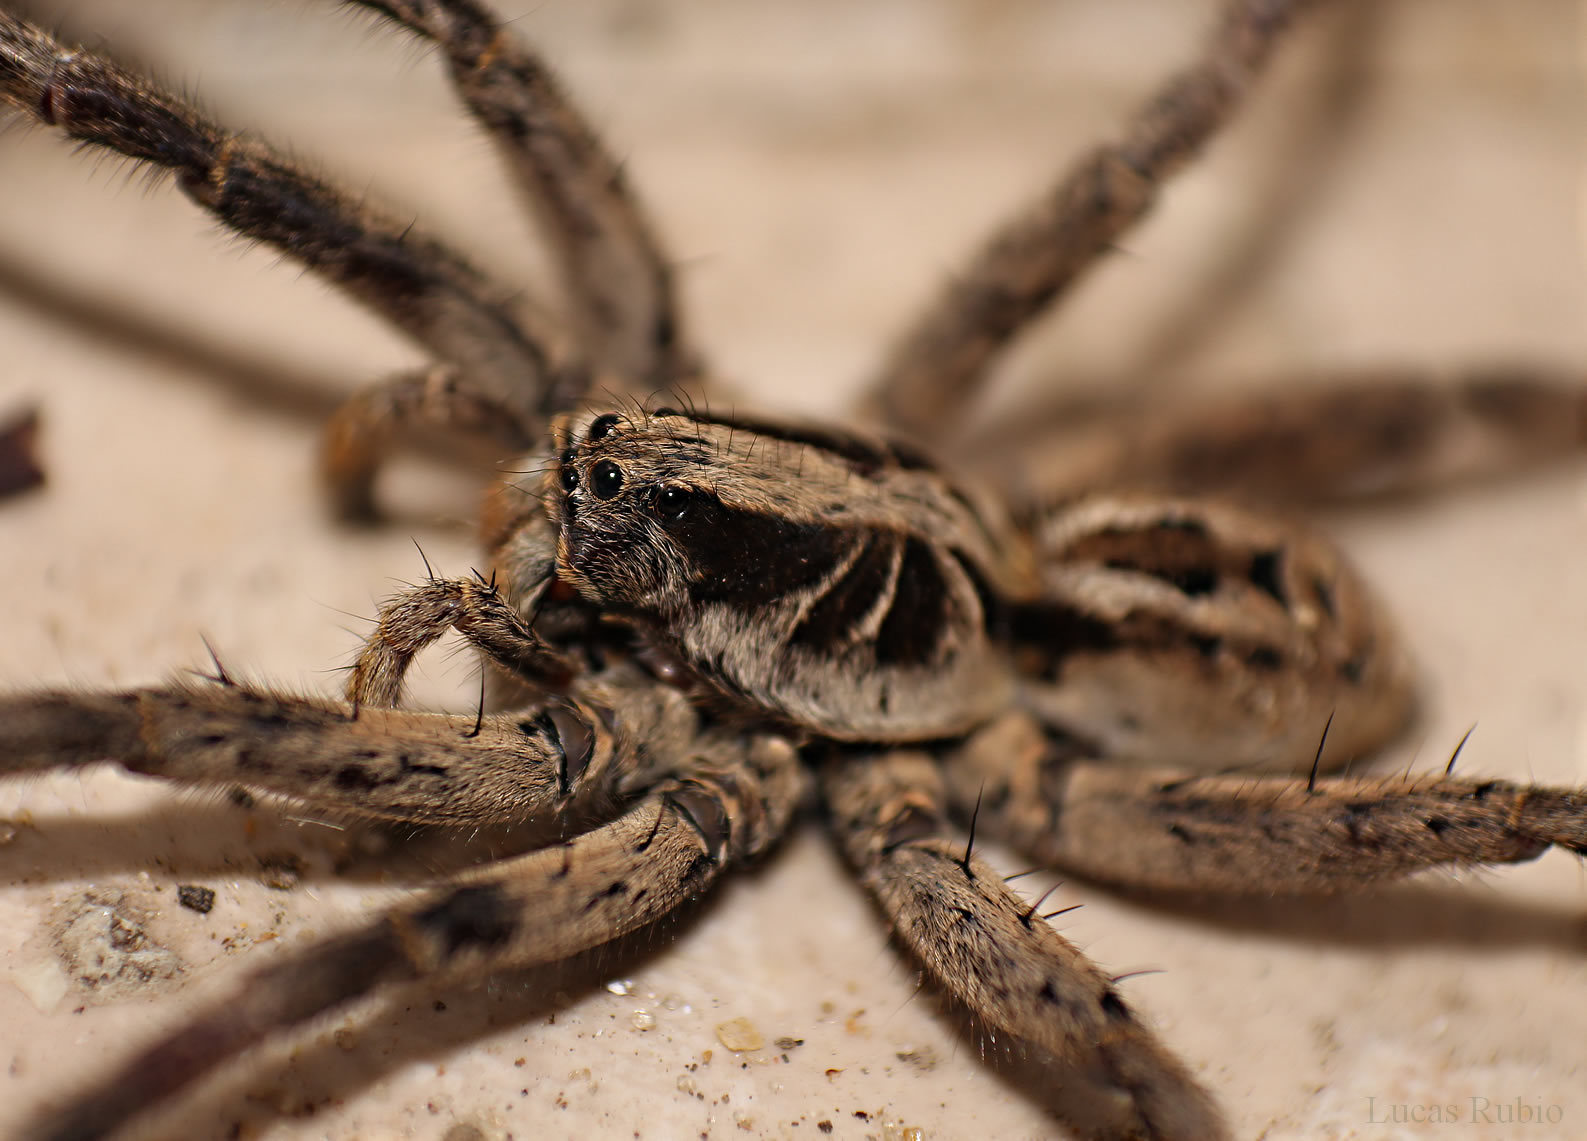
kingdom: Animalia
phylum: Arthropoda
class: Arachnida
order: Araneae
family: Lycosidae
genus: Lycosa
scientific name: Lycosa erythrognatha
